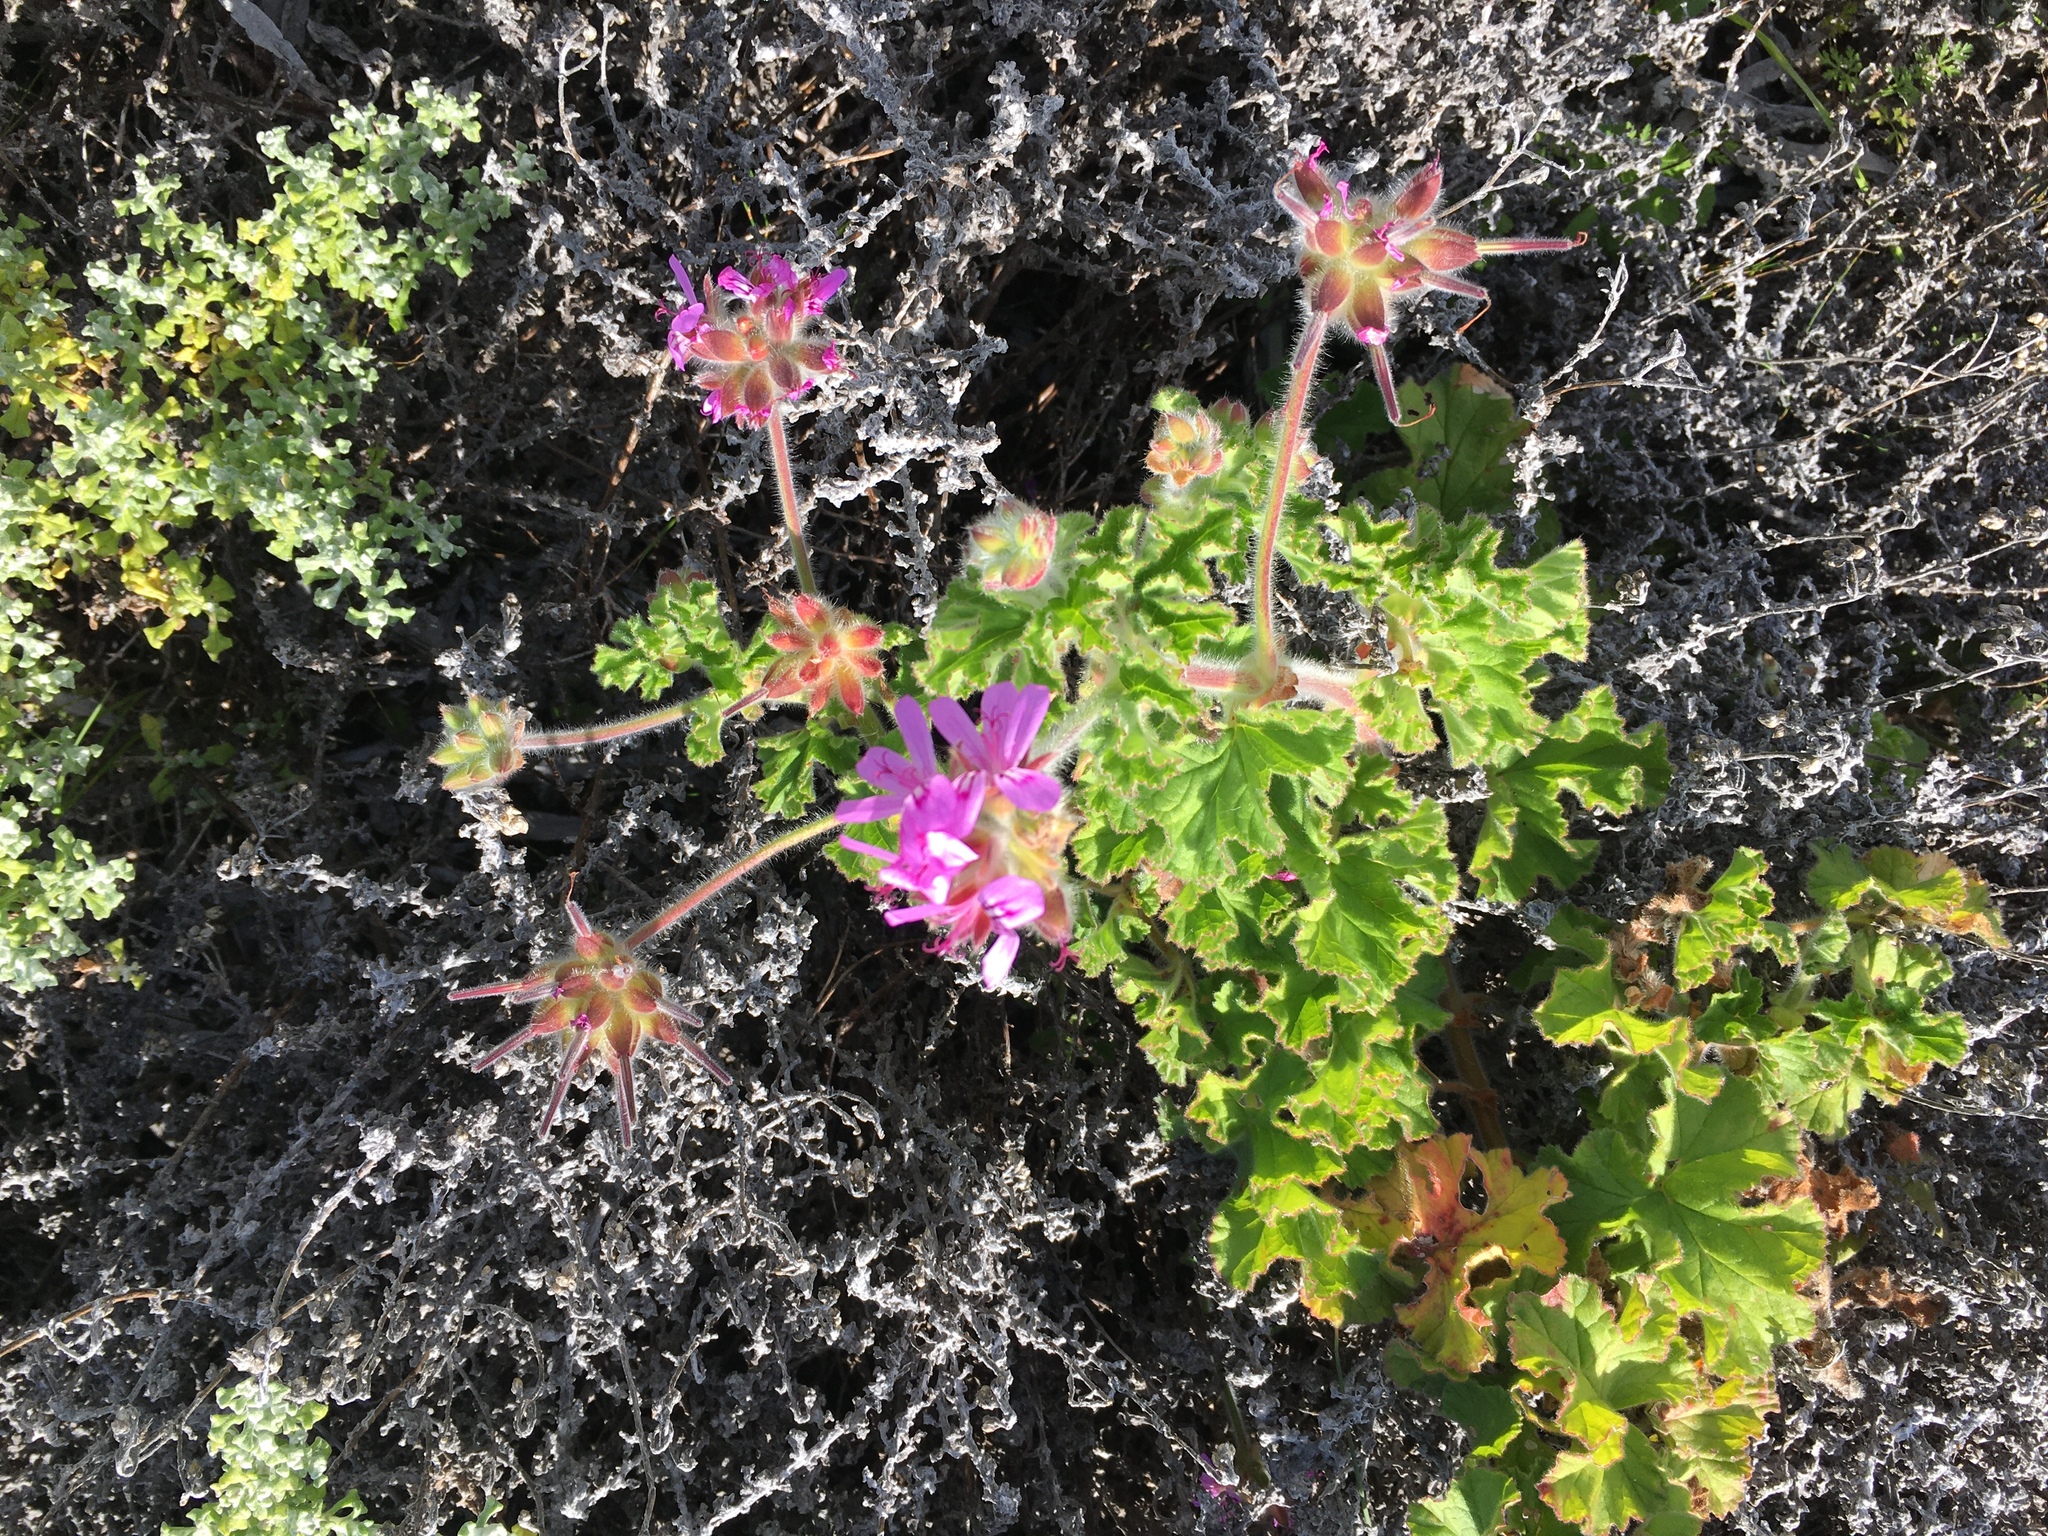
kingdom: Plantae
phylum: Tracheophyta
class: Magnoliopsida
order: Geraniales
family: Geraniaceae
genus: Pelargonium
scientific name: Pelargonium capitatum
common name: Rose scented geranium
